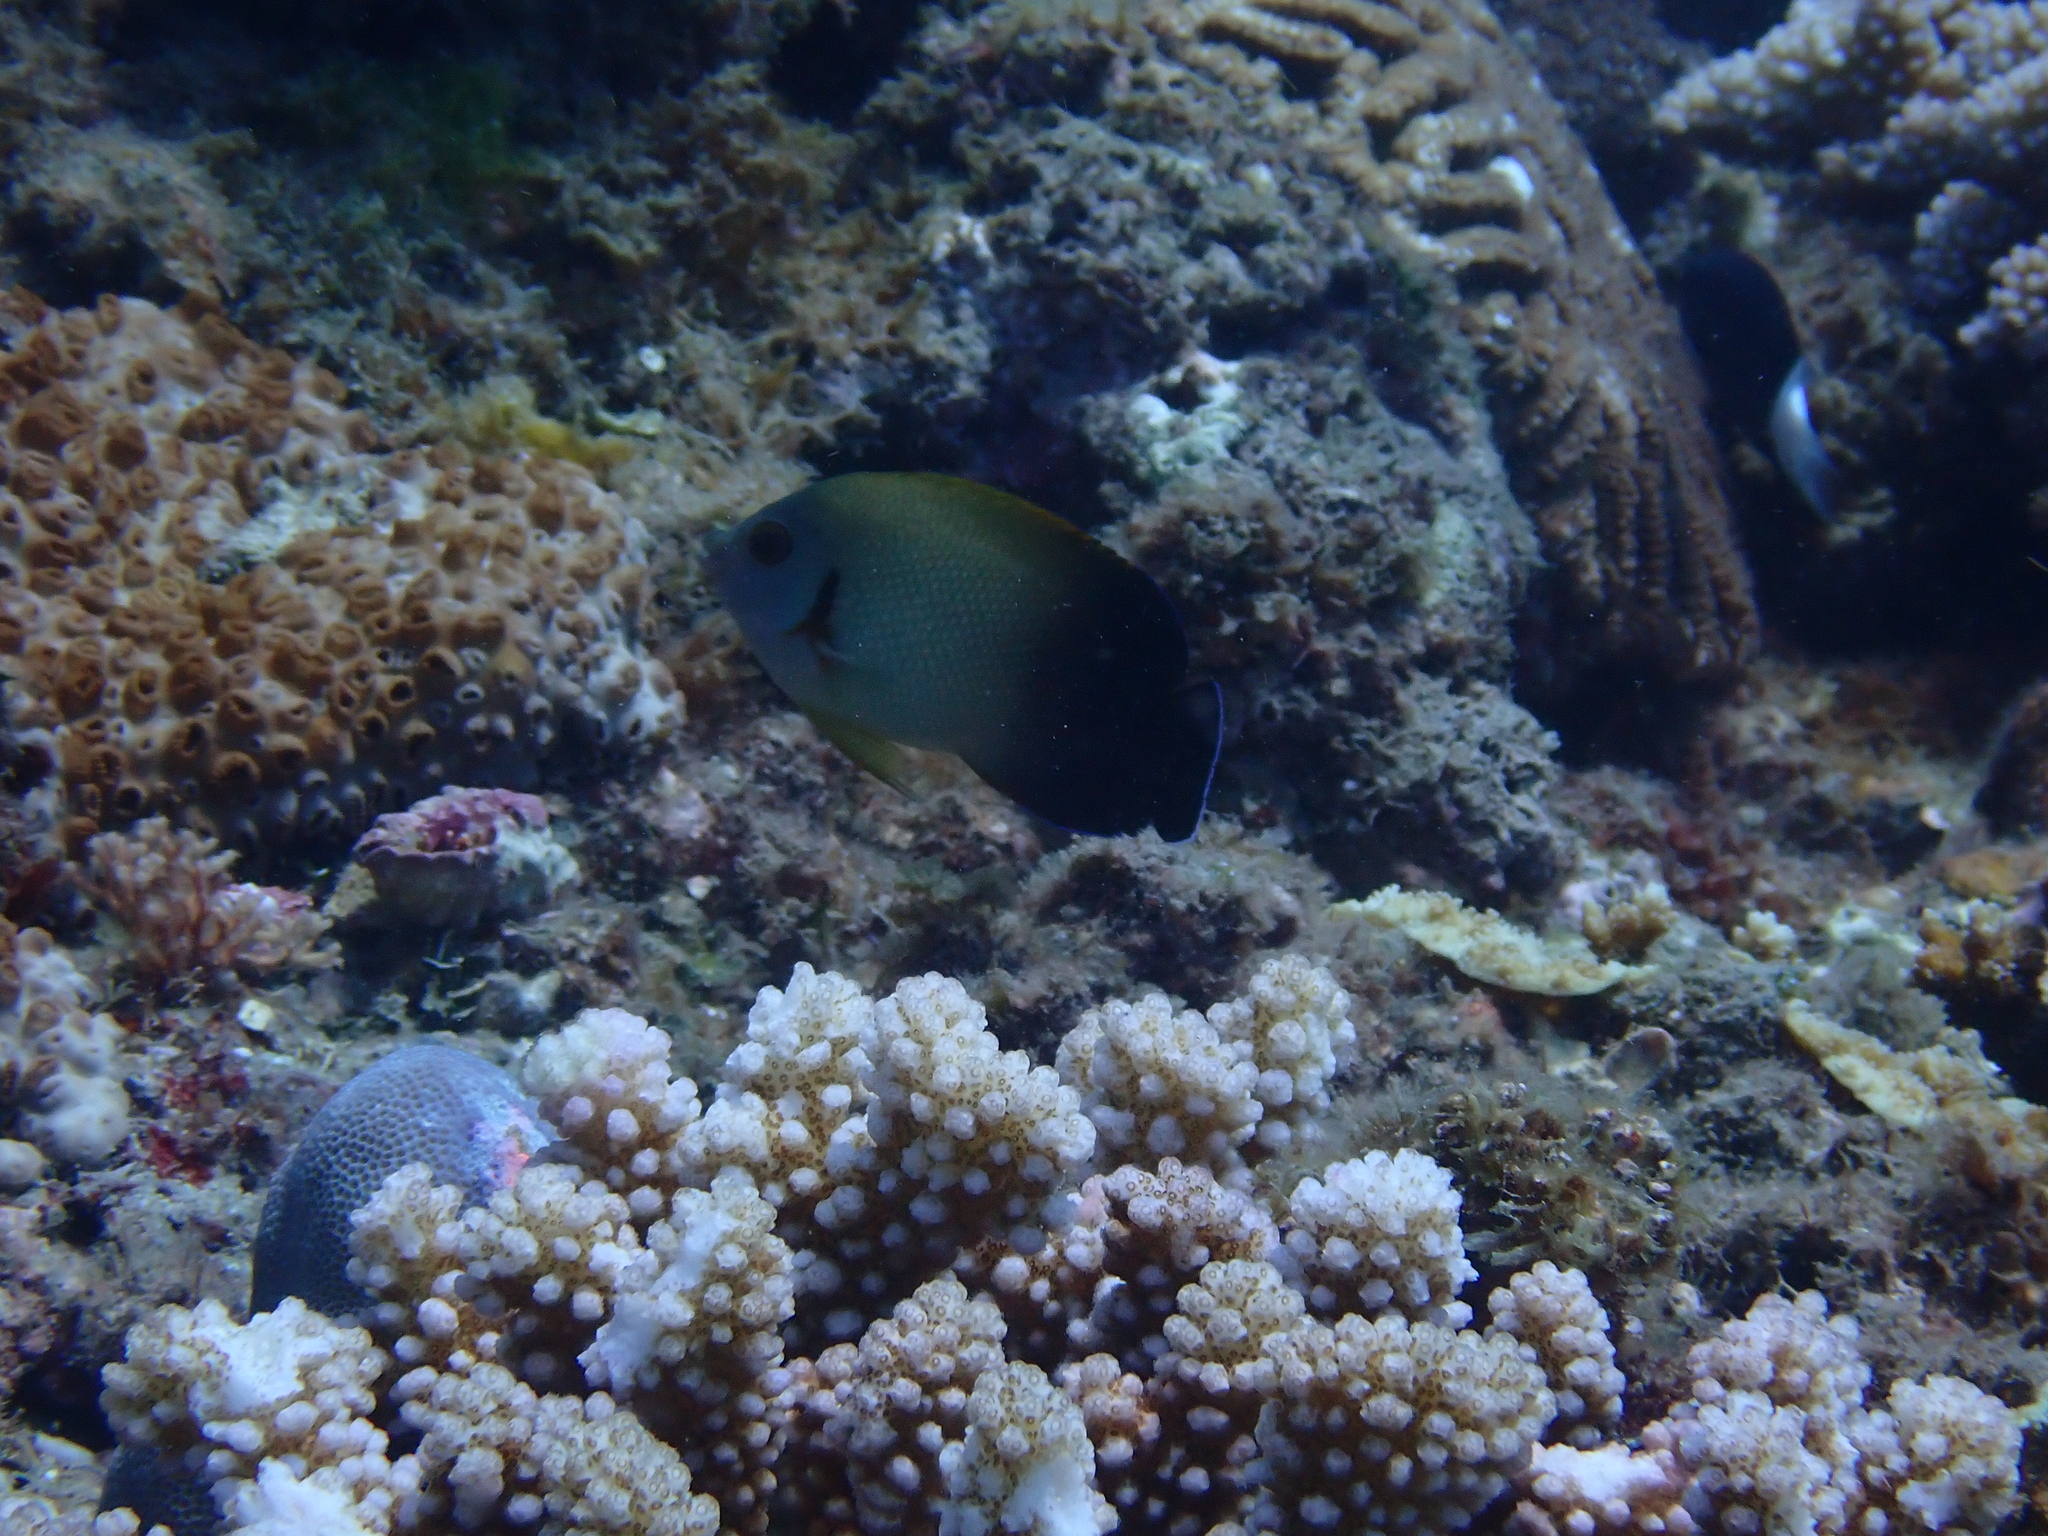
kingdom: Animalia
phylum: Chordata
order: Perciformes
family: Pomacanthidae
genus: Centropyge
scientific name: Centropyge vrolikii
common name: Pearlscale angelfish
